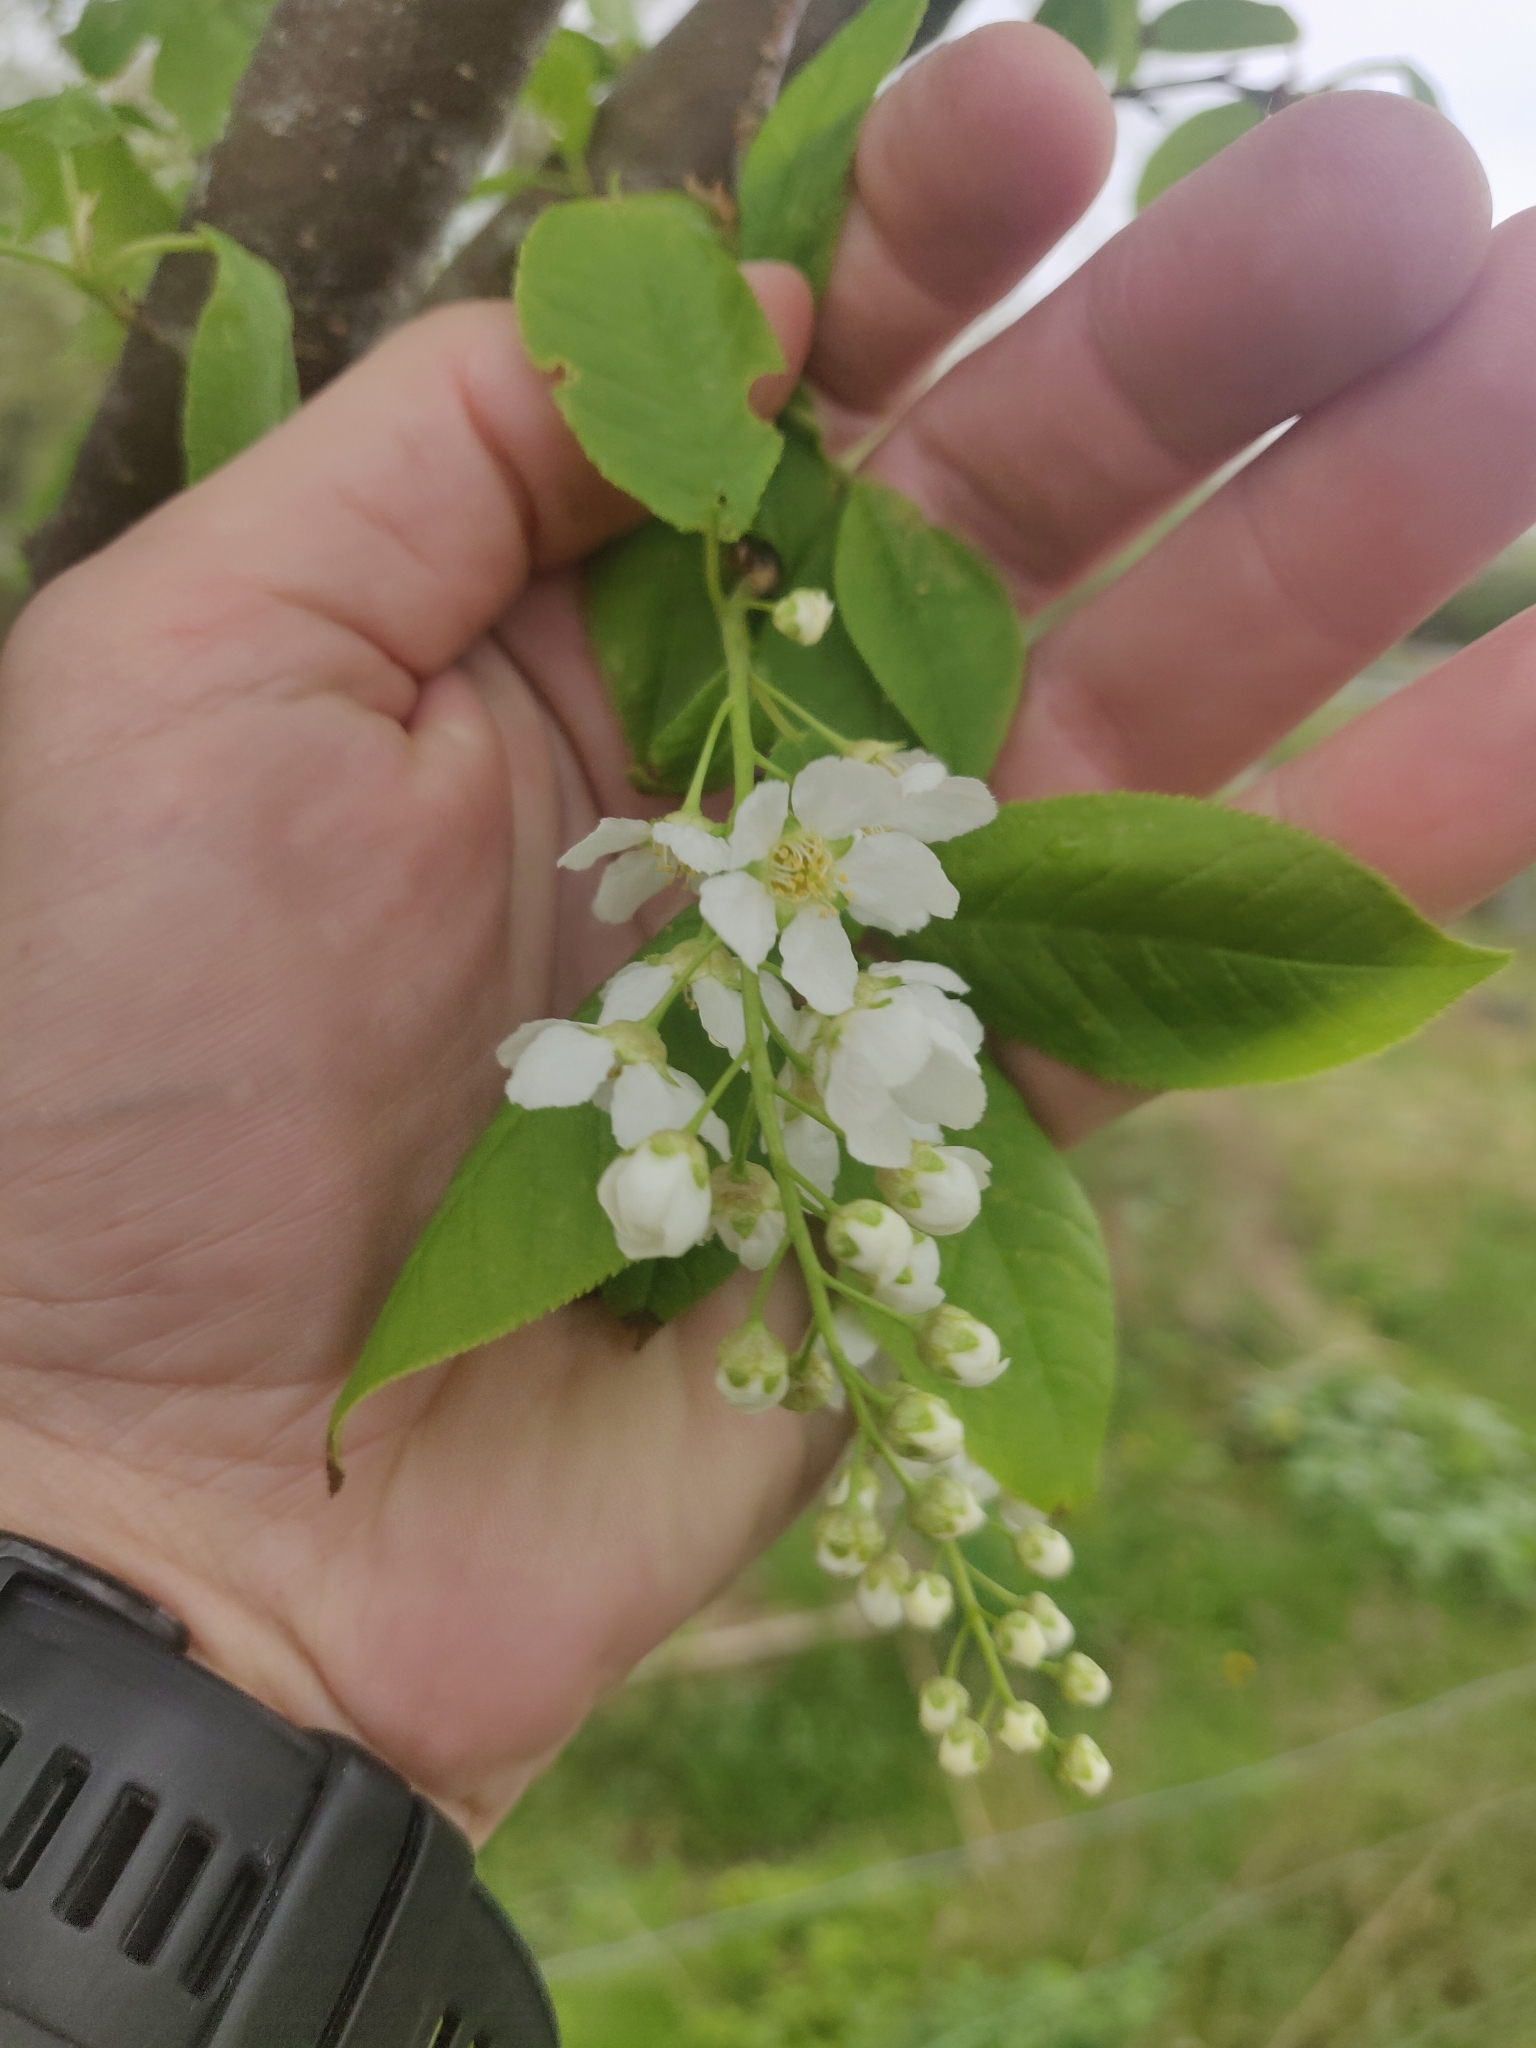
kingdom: Plantae
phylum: Tracheophyta
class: Magnoliopsida
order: Rosales
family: Rosaceae
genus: Prunus
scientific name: Prunus padus
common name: Bird cherry
